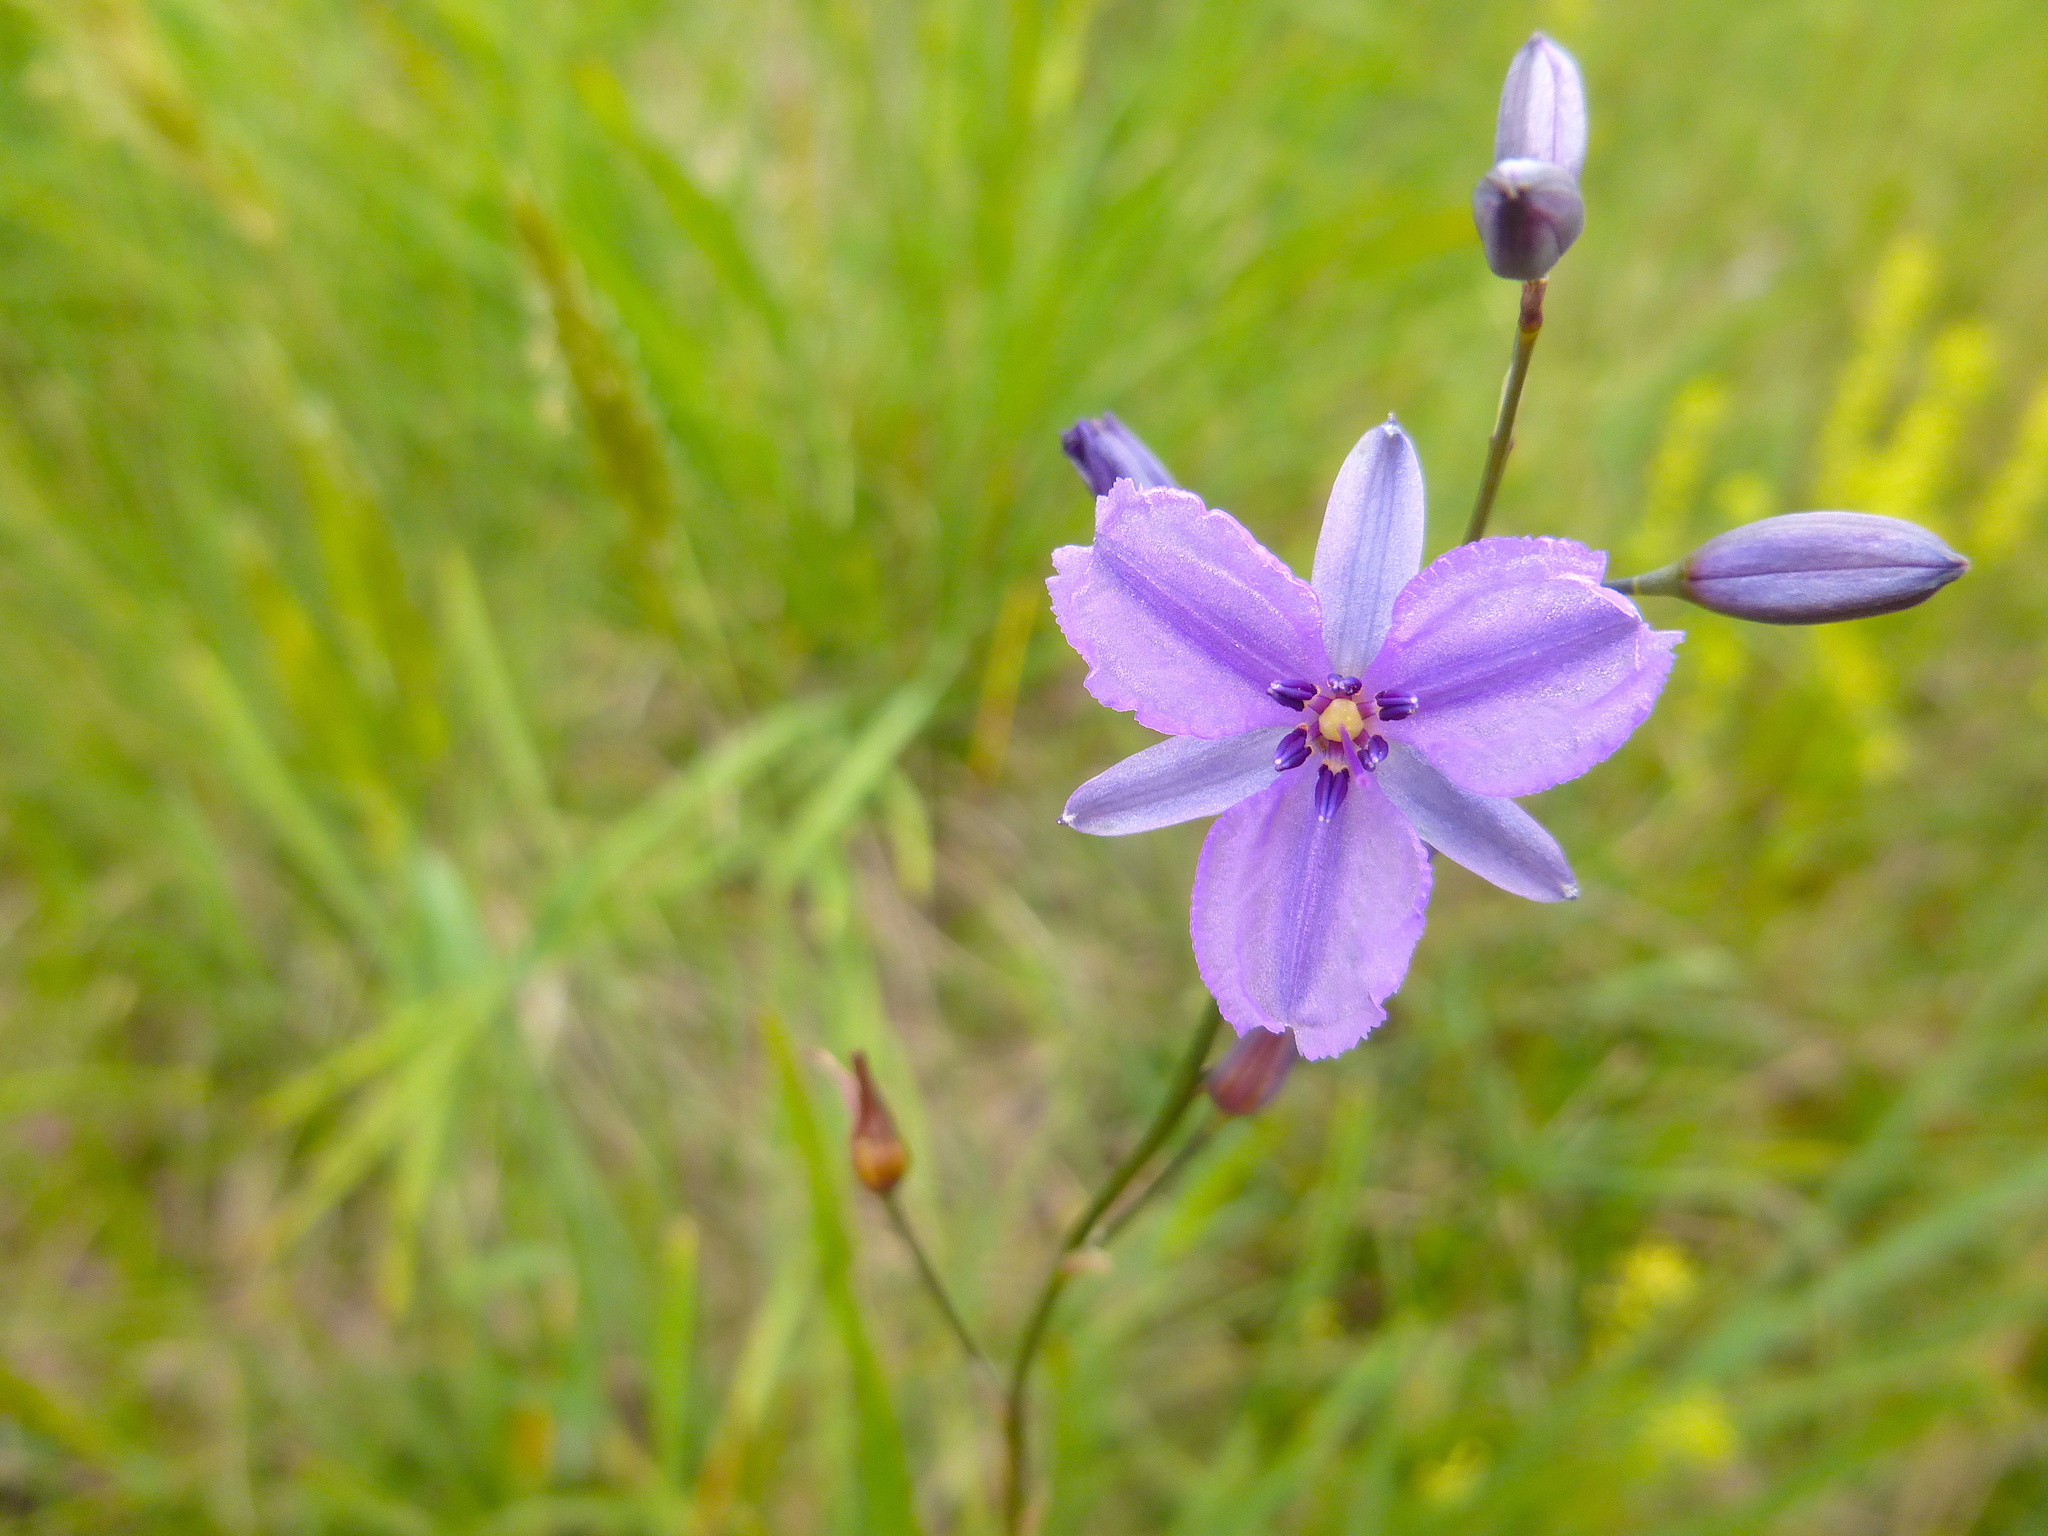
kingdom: Plantae
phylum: Tracheophyta
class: Liliopsida
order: Asparagales
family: Asparagaceae
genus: Arthropodium
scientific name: Arthropodium strictum
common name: Chocolate-lily
